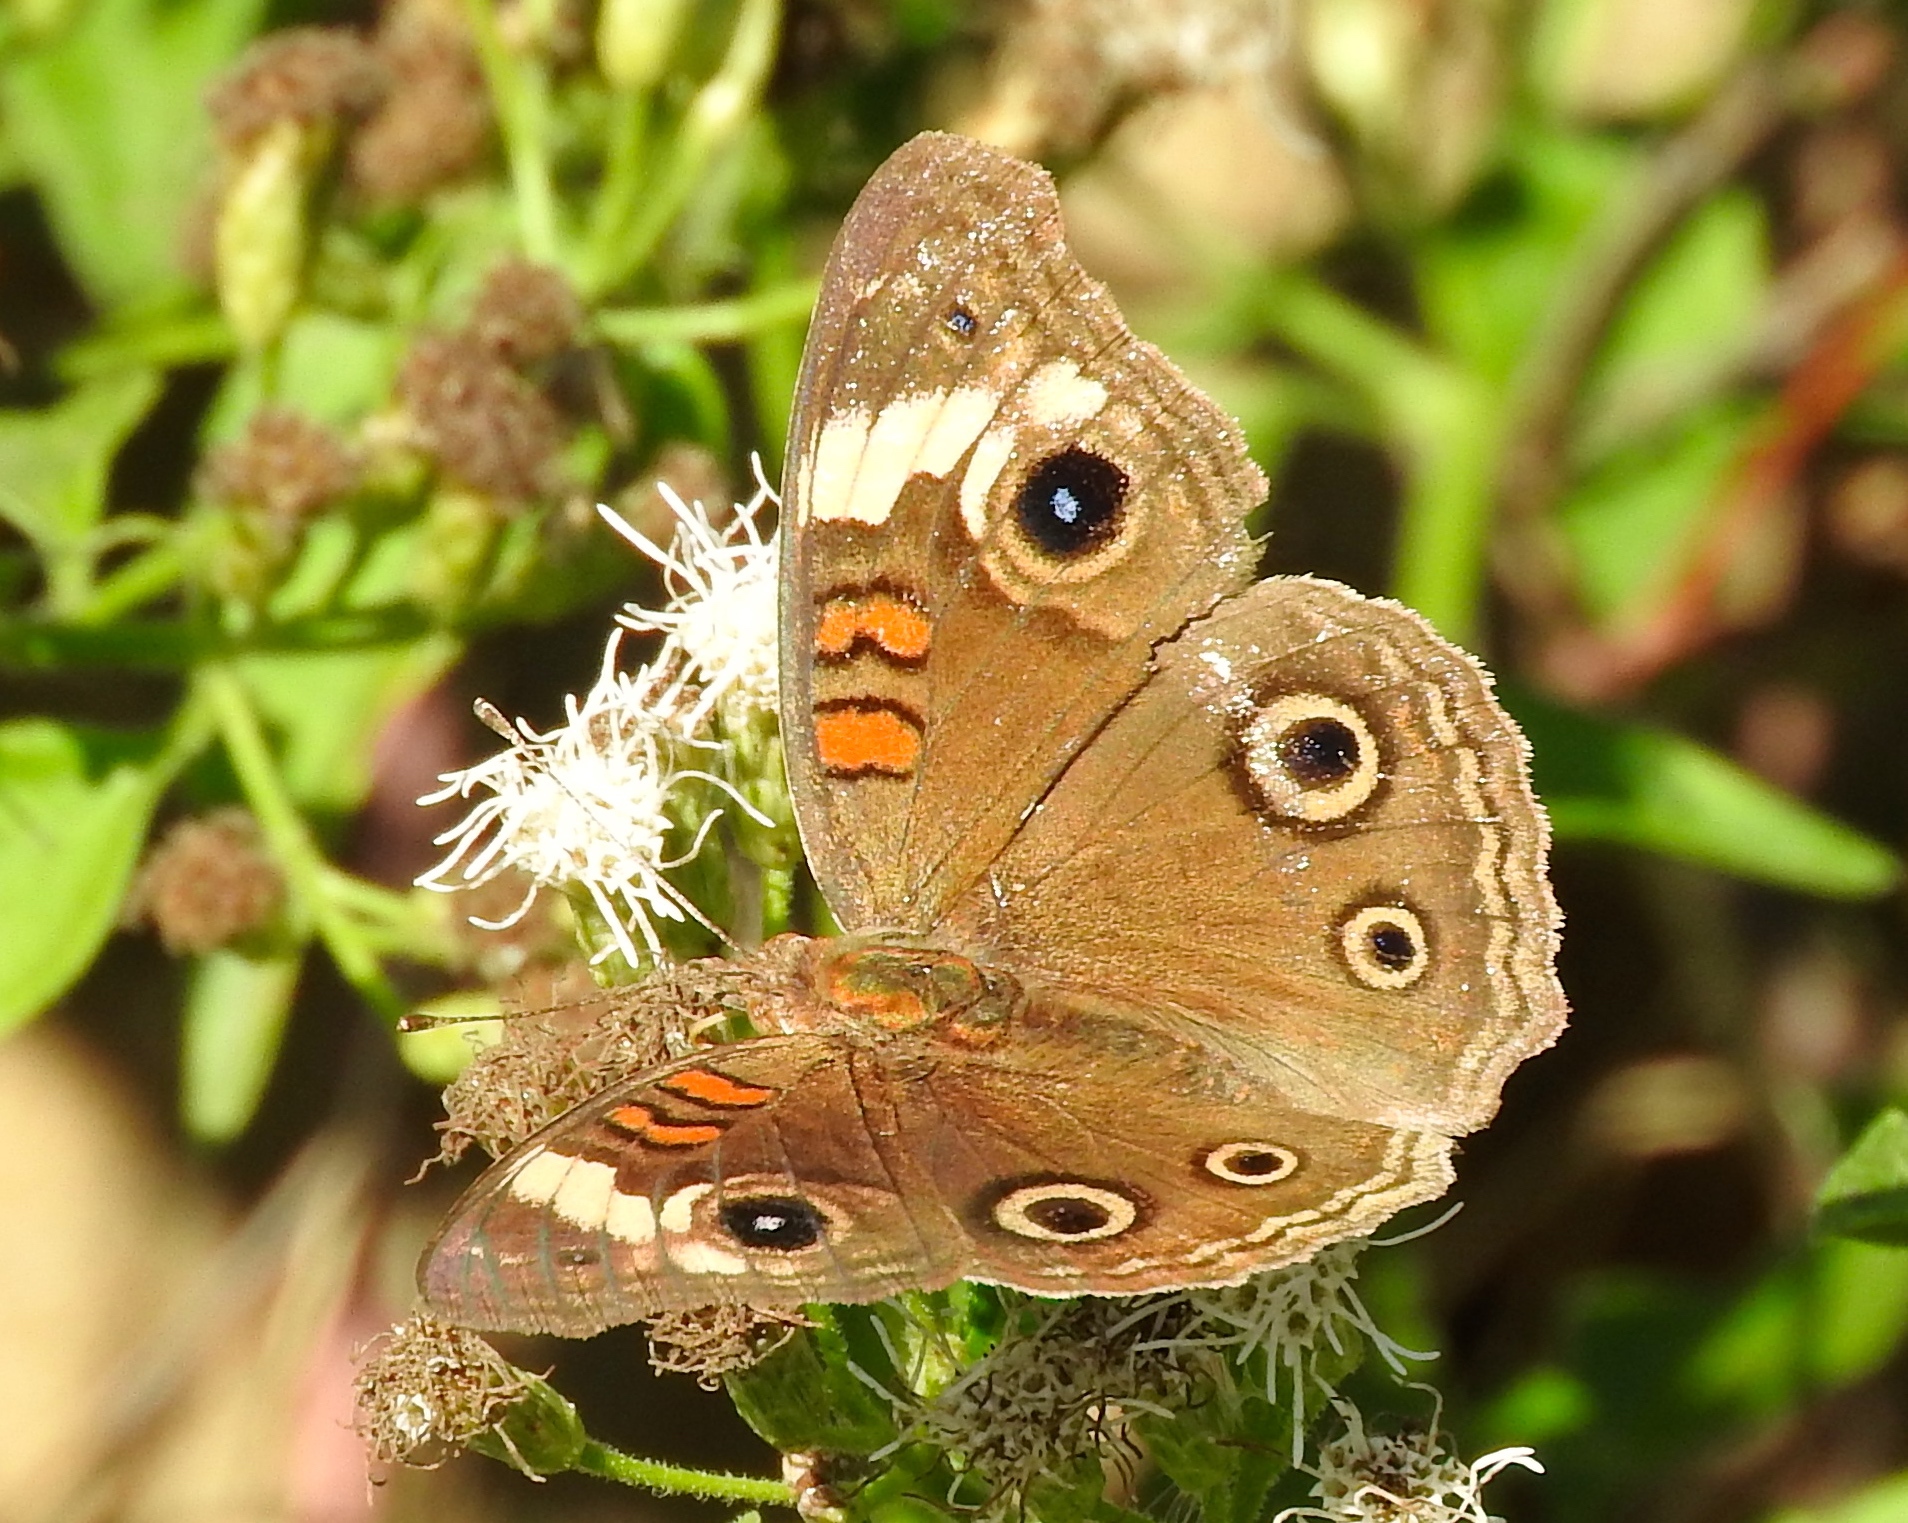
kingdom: Animalia
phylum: Arthropoda
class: Insecta
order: Lepidoptera
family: Nymphalidae
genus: Junonia
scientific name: Junonia
